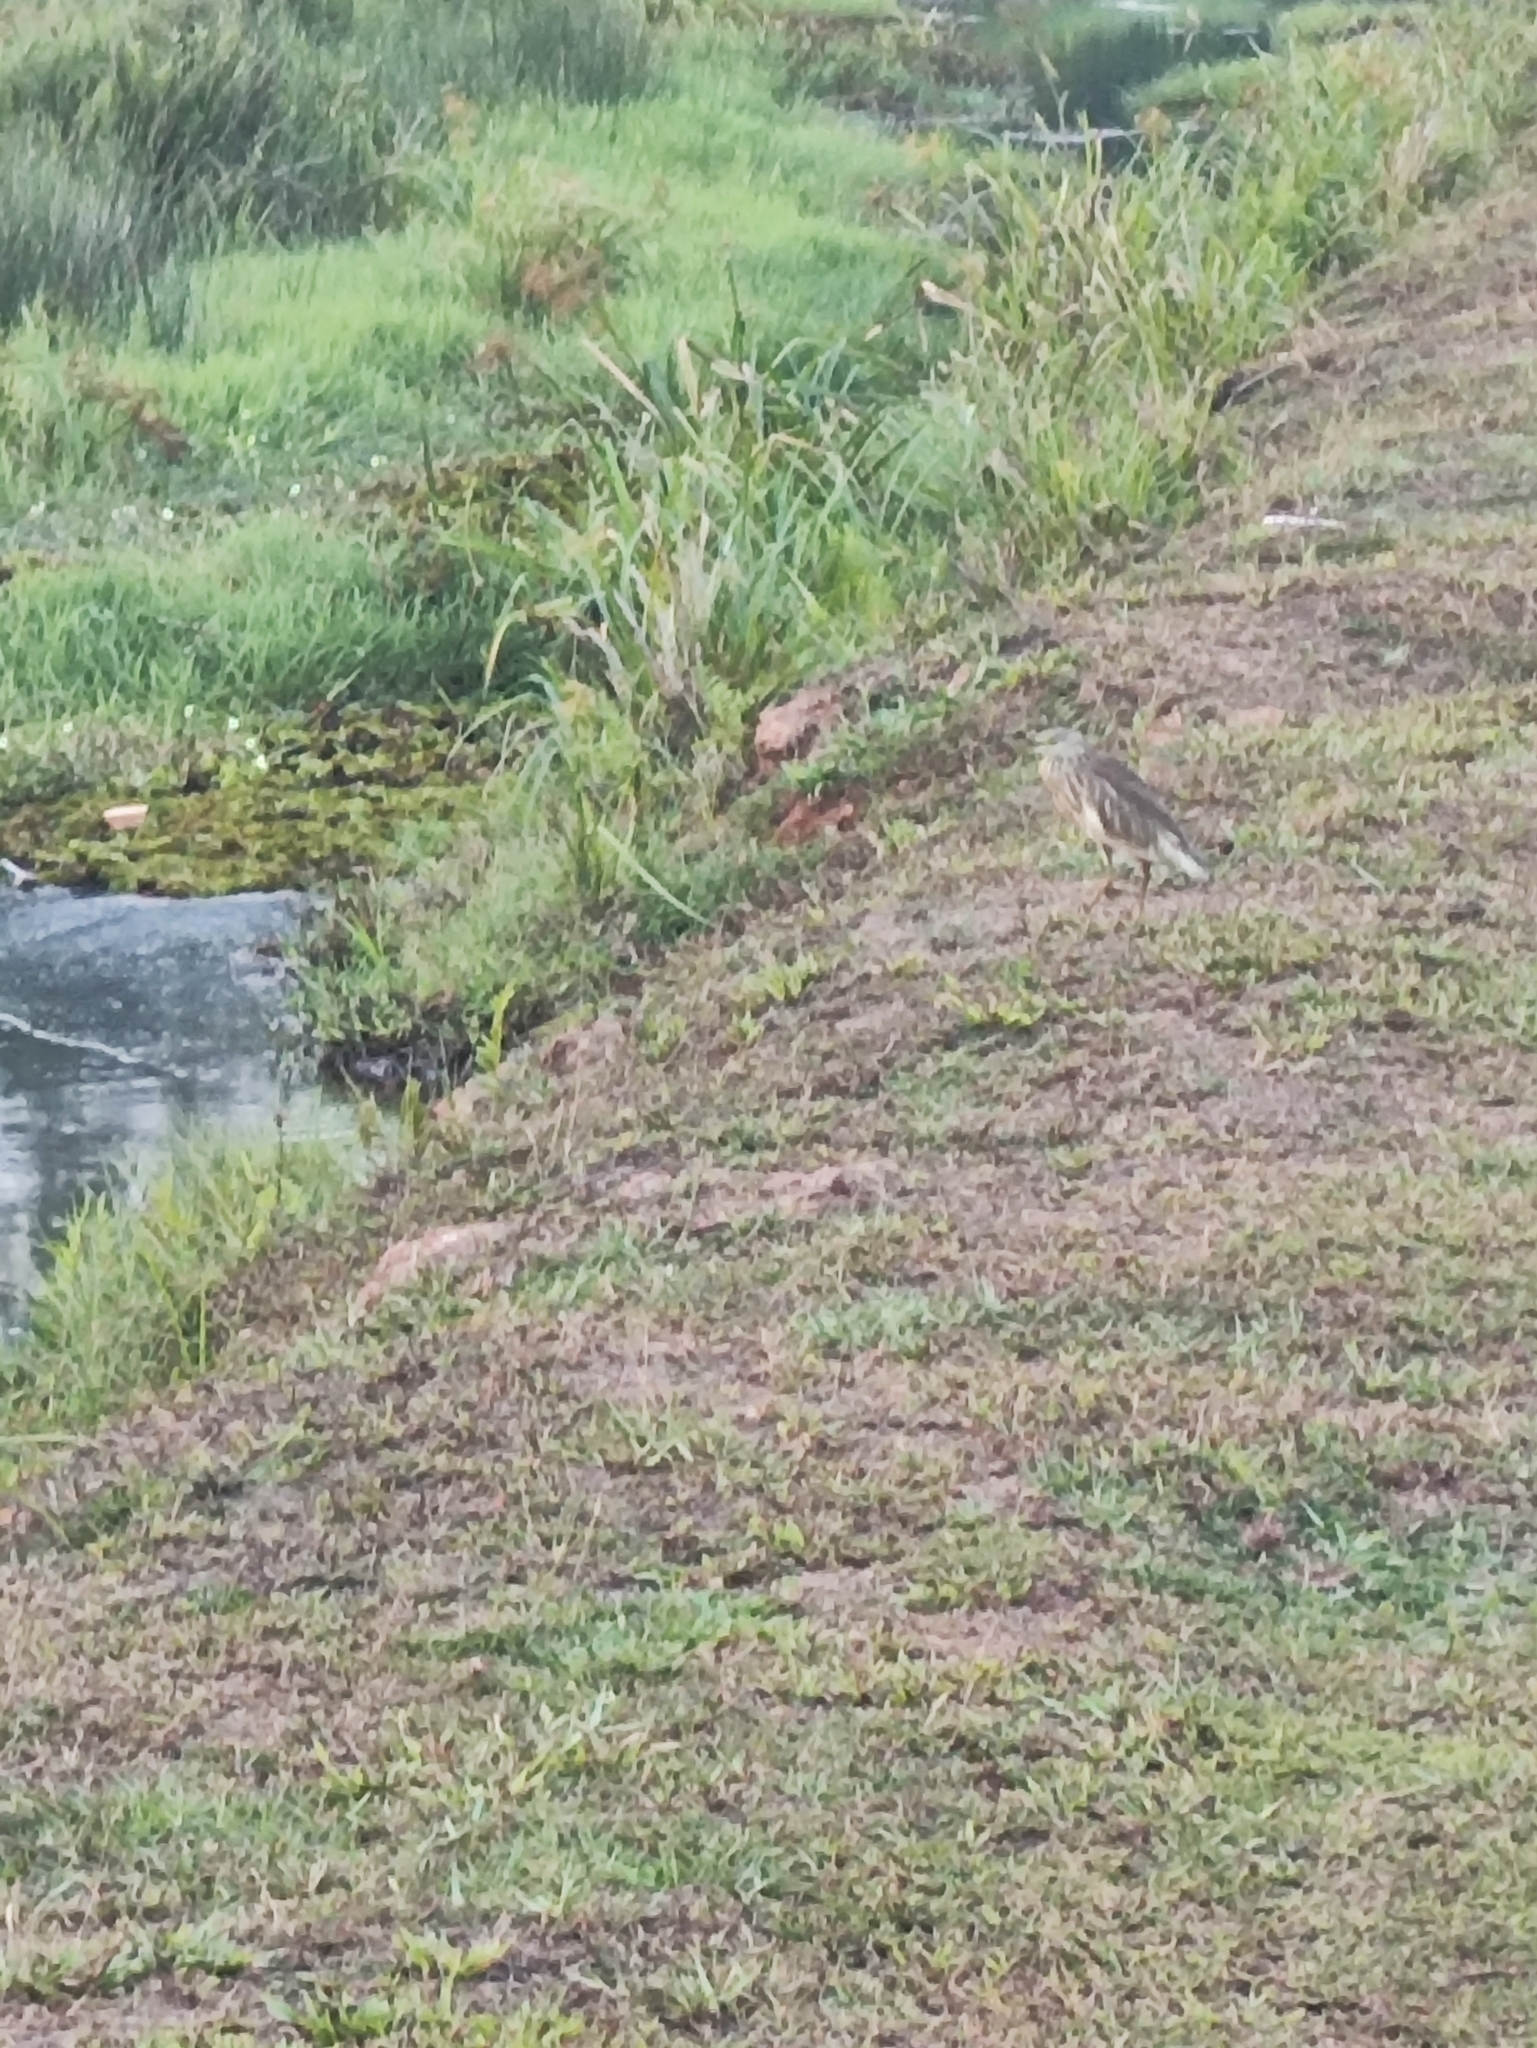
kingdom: Animalia
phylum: Chordata
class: Aves
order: Pelecaniformes
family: Ardeidae
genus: Ardeola
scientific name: Ardeola grayii
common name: Indian pond heron
